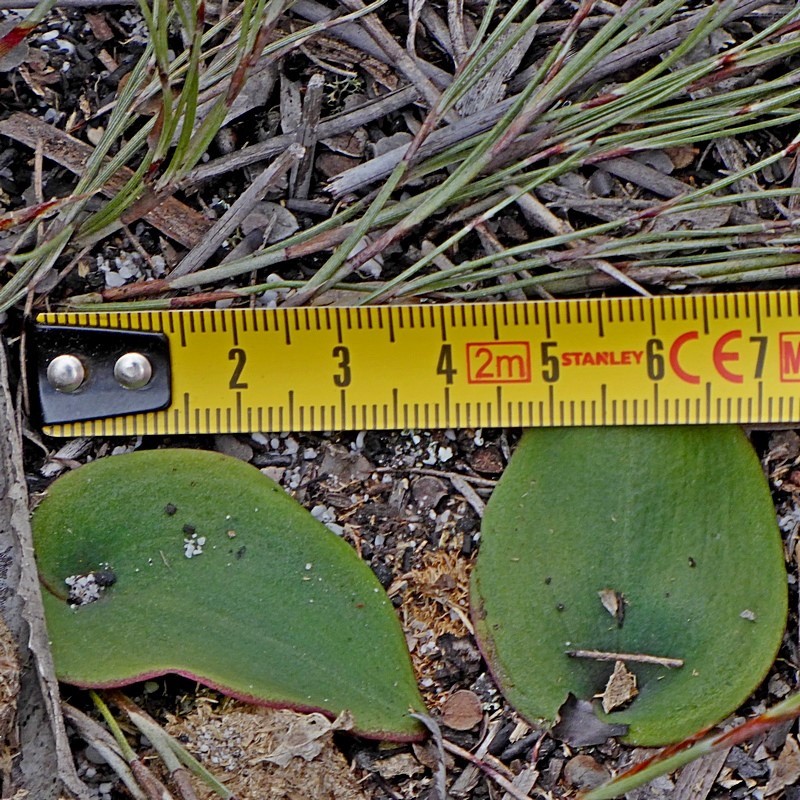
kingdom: Plantae
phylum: Tracheophyta
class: Liliopsida
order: Asparagales
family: Orchidaceae
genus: Pyrorchis
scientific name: Pyrorchis nigricans
